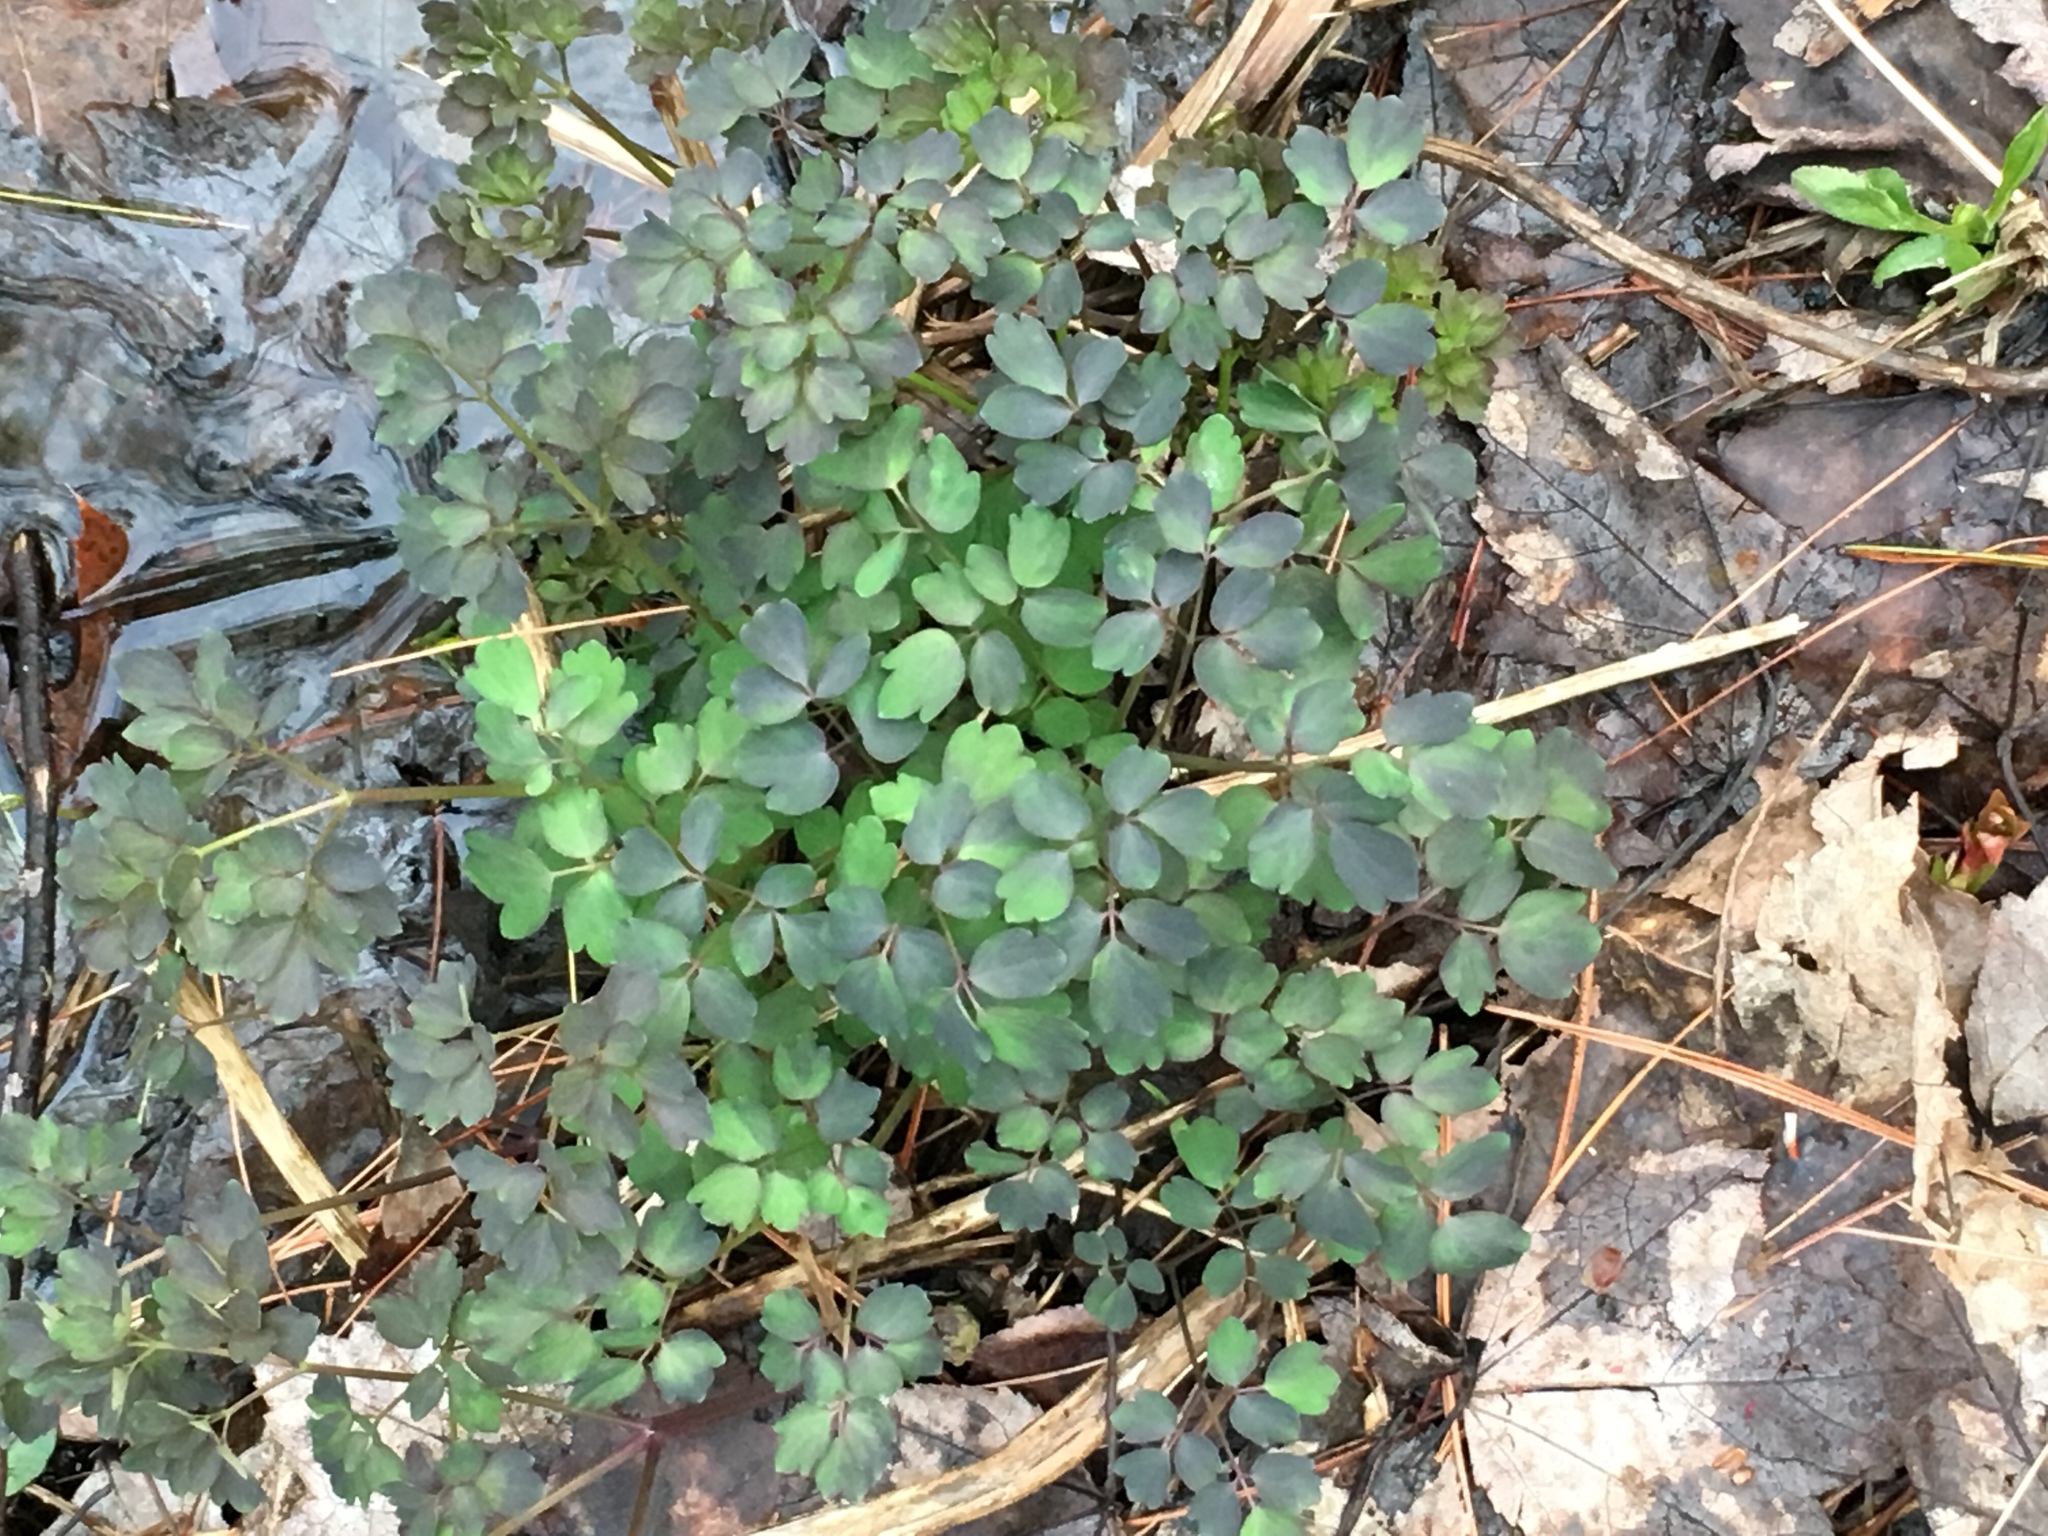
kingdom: Plantae
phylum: Tracheophyta
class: Magnoliopsida
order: Ranunculales
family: Ranunculaceae
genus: Thalictrum
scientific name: Thalictrum pubescens
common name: King-of-the-meadow
